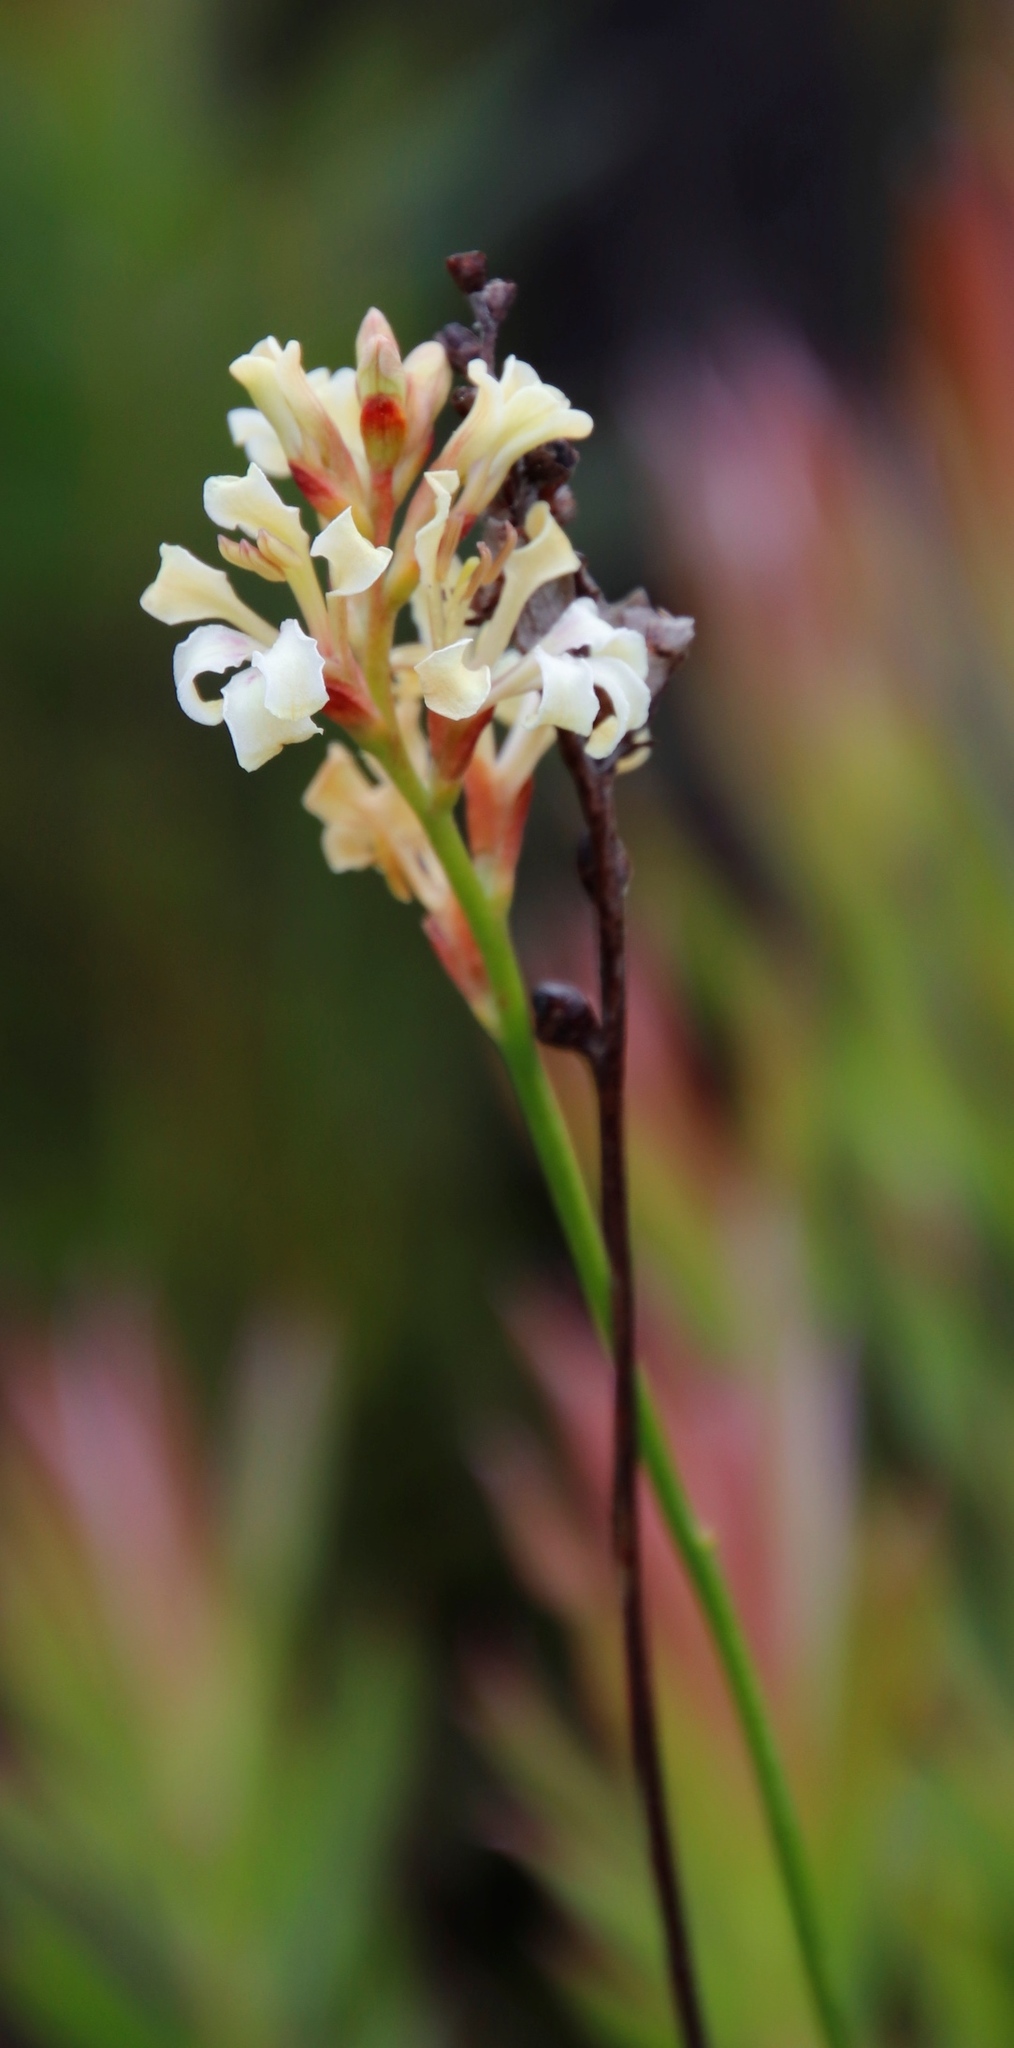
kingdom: Plantae
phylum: Tracheophyta
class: Liliopsida
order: Asparagales
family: Iridaceae
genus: Tritoniopsis
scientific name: Tritoniopsis unguicularis
